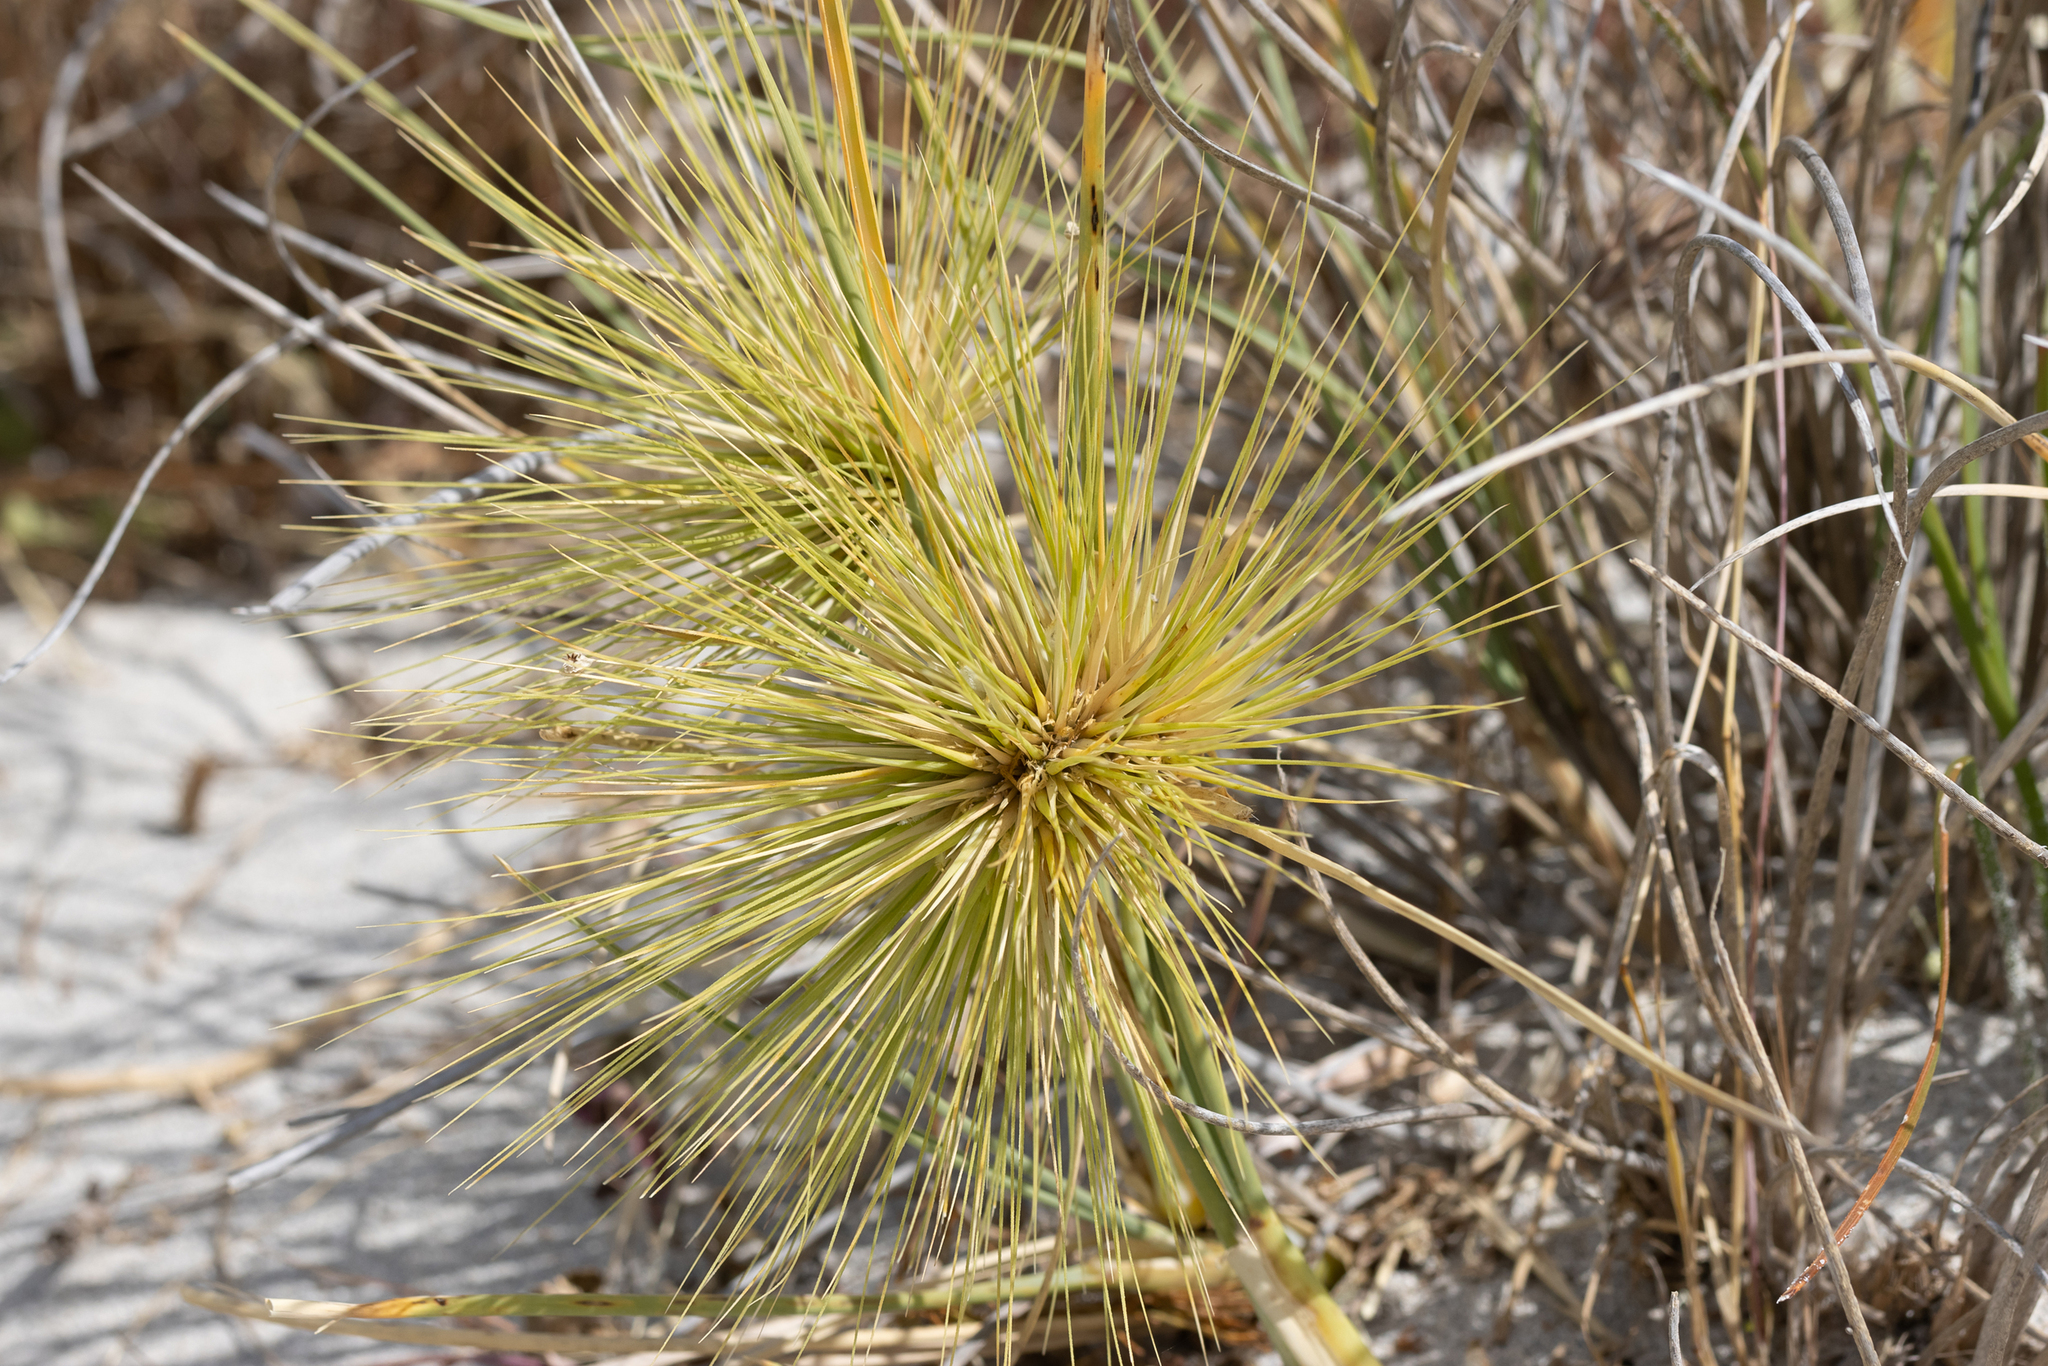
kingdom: Plantae
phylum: Tracheophyta
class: Liliopsida
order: Poales
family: Poaceae
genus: Spinifex
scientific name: Spinifex longifolius
